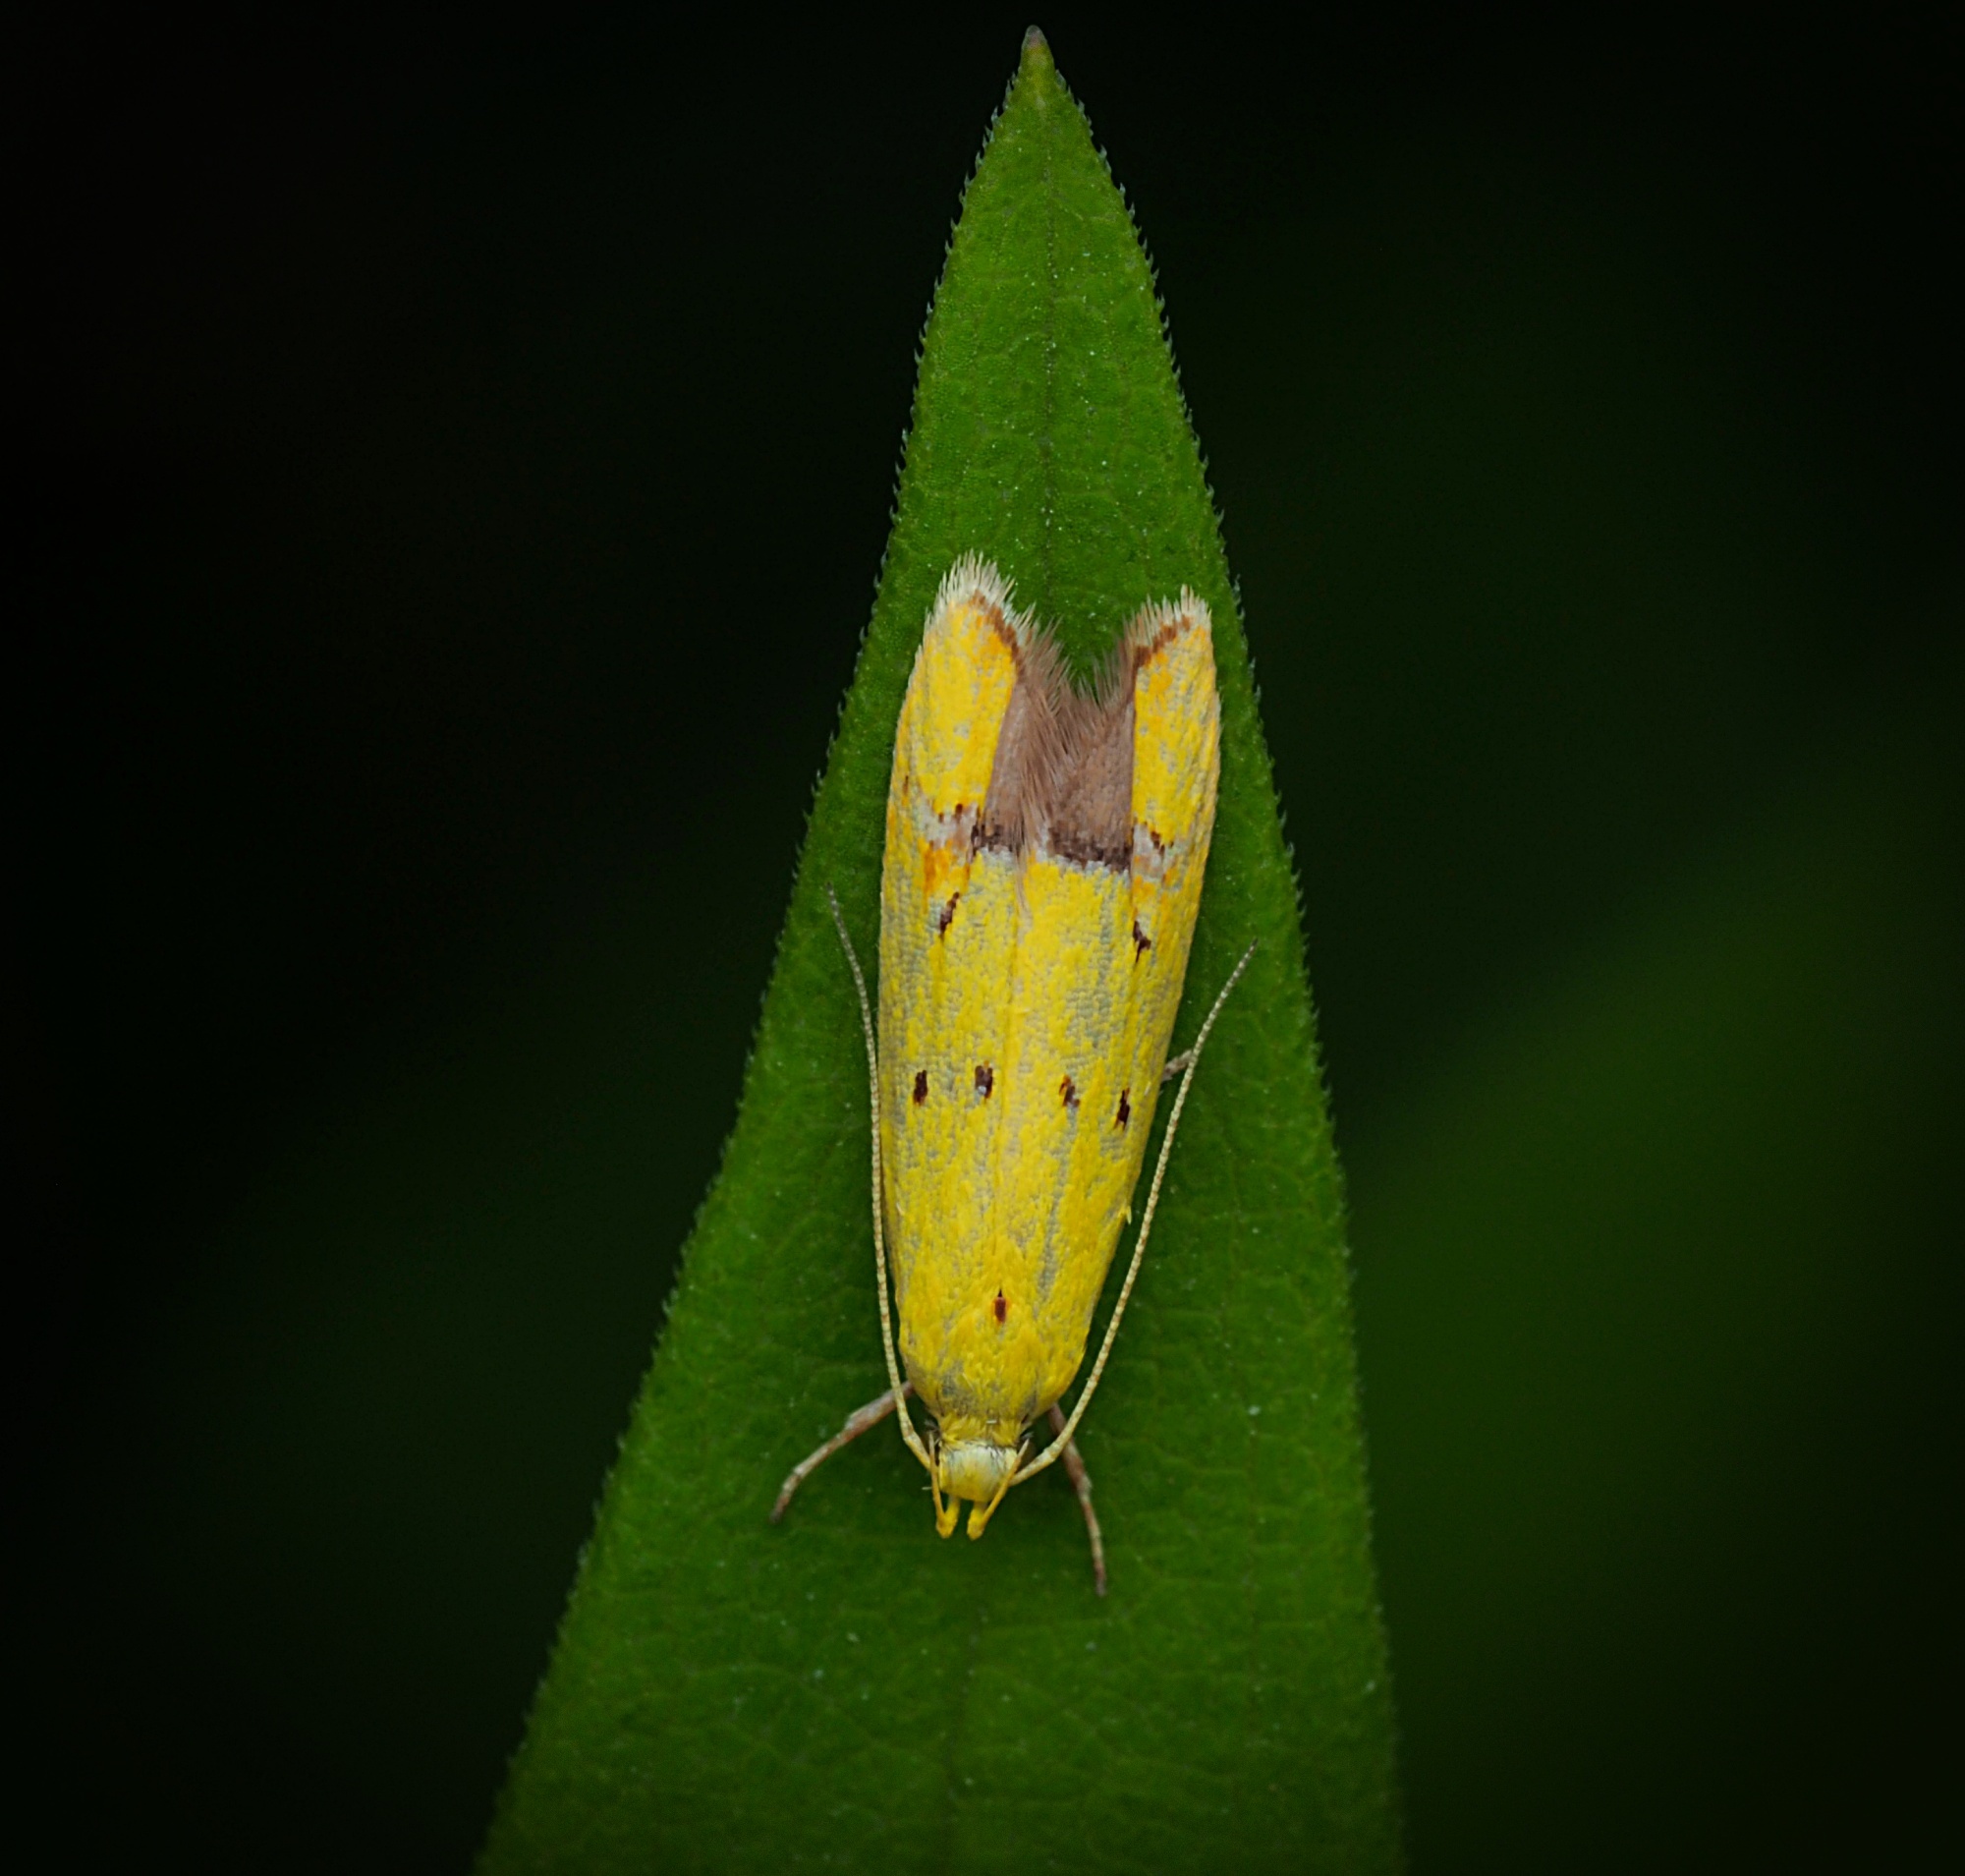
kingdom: Animalia
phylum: Arthropoda
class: Insecta
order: Lepidoptera
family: Oecophoridae
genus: Gymnobathra
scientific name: Gymnobathra flavidella
